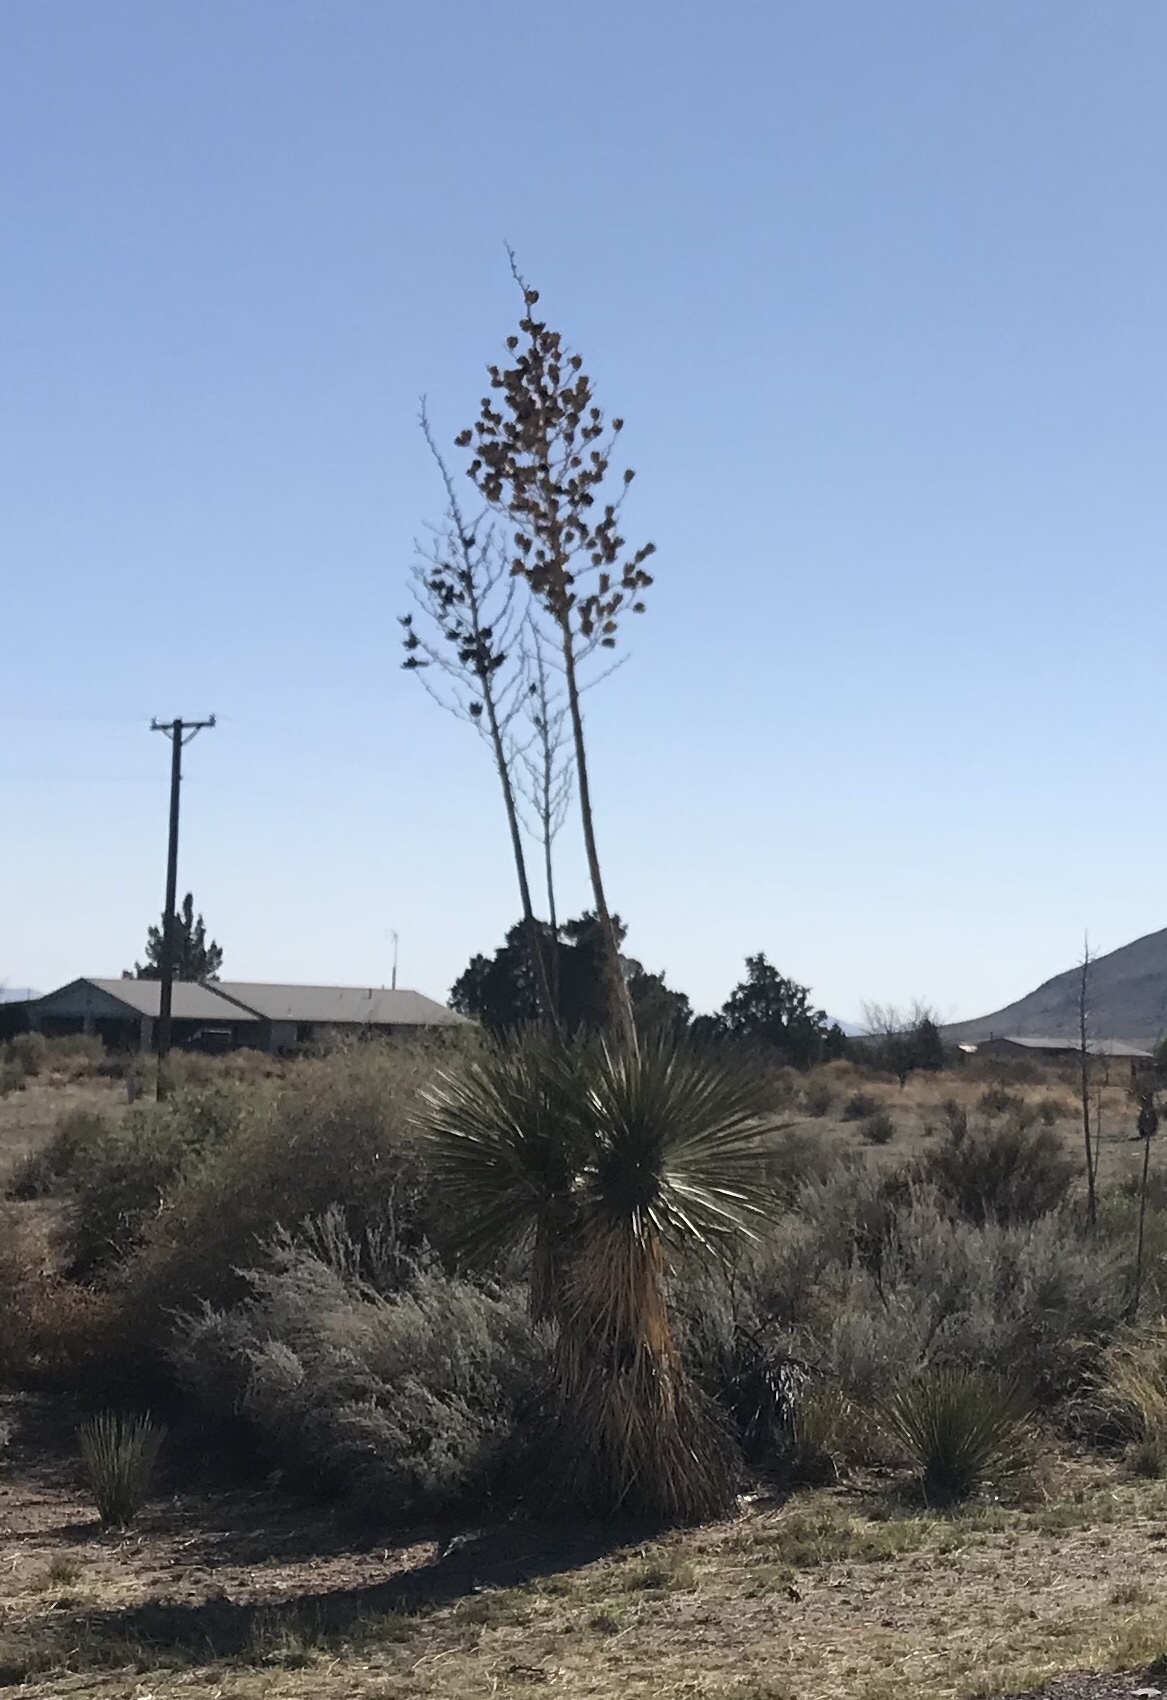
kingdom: Plantae
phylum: Tracheophyta
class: Liliopsida
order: Asparagales
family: Asparagaceae
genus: Yucca
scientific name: Yucca elata
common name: Palmella
